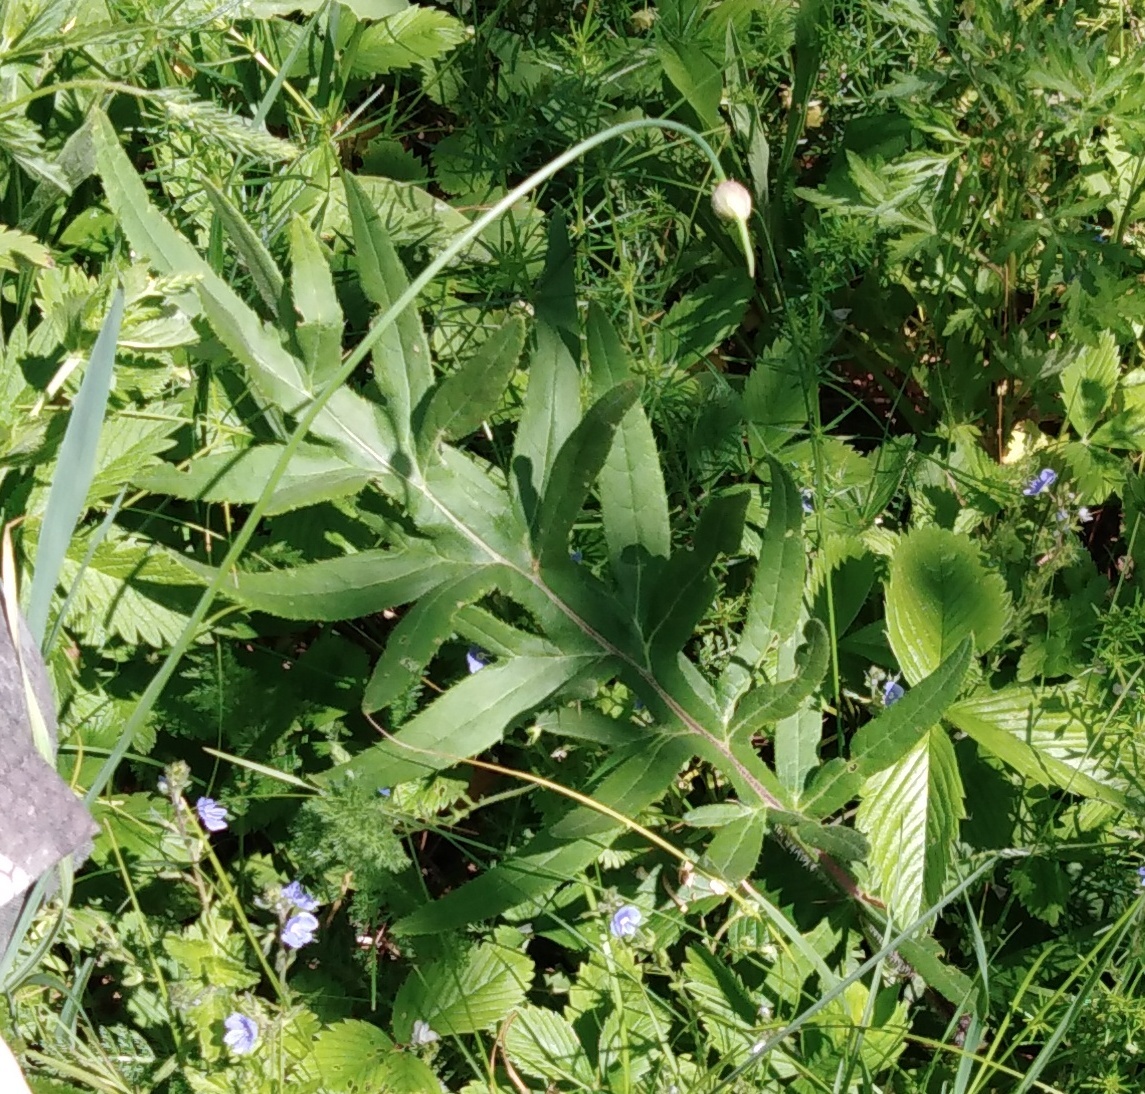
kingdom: Plantae
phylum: Tracheophyta
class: Magnoliopsida
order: Asterales
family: Asteraceae
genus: Lophiolepis
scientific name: Lophiolepis decussata
